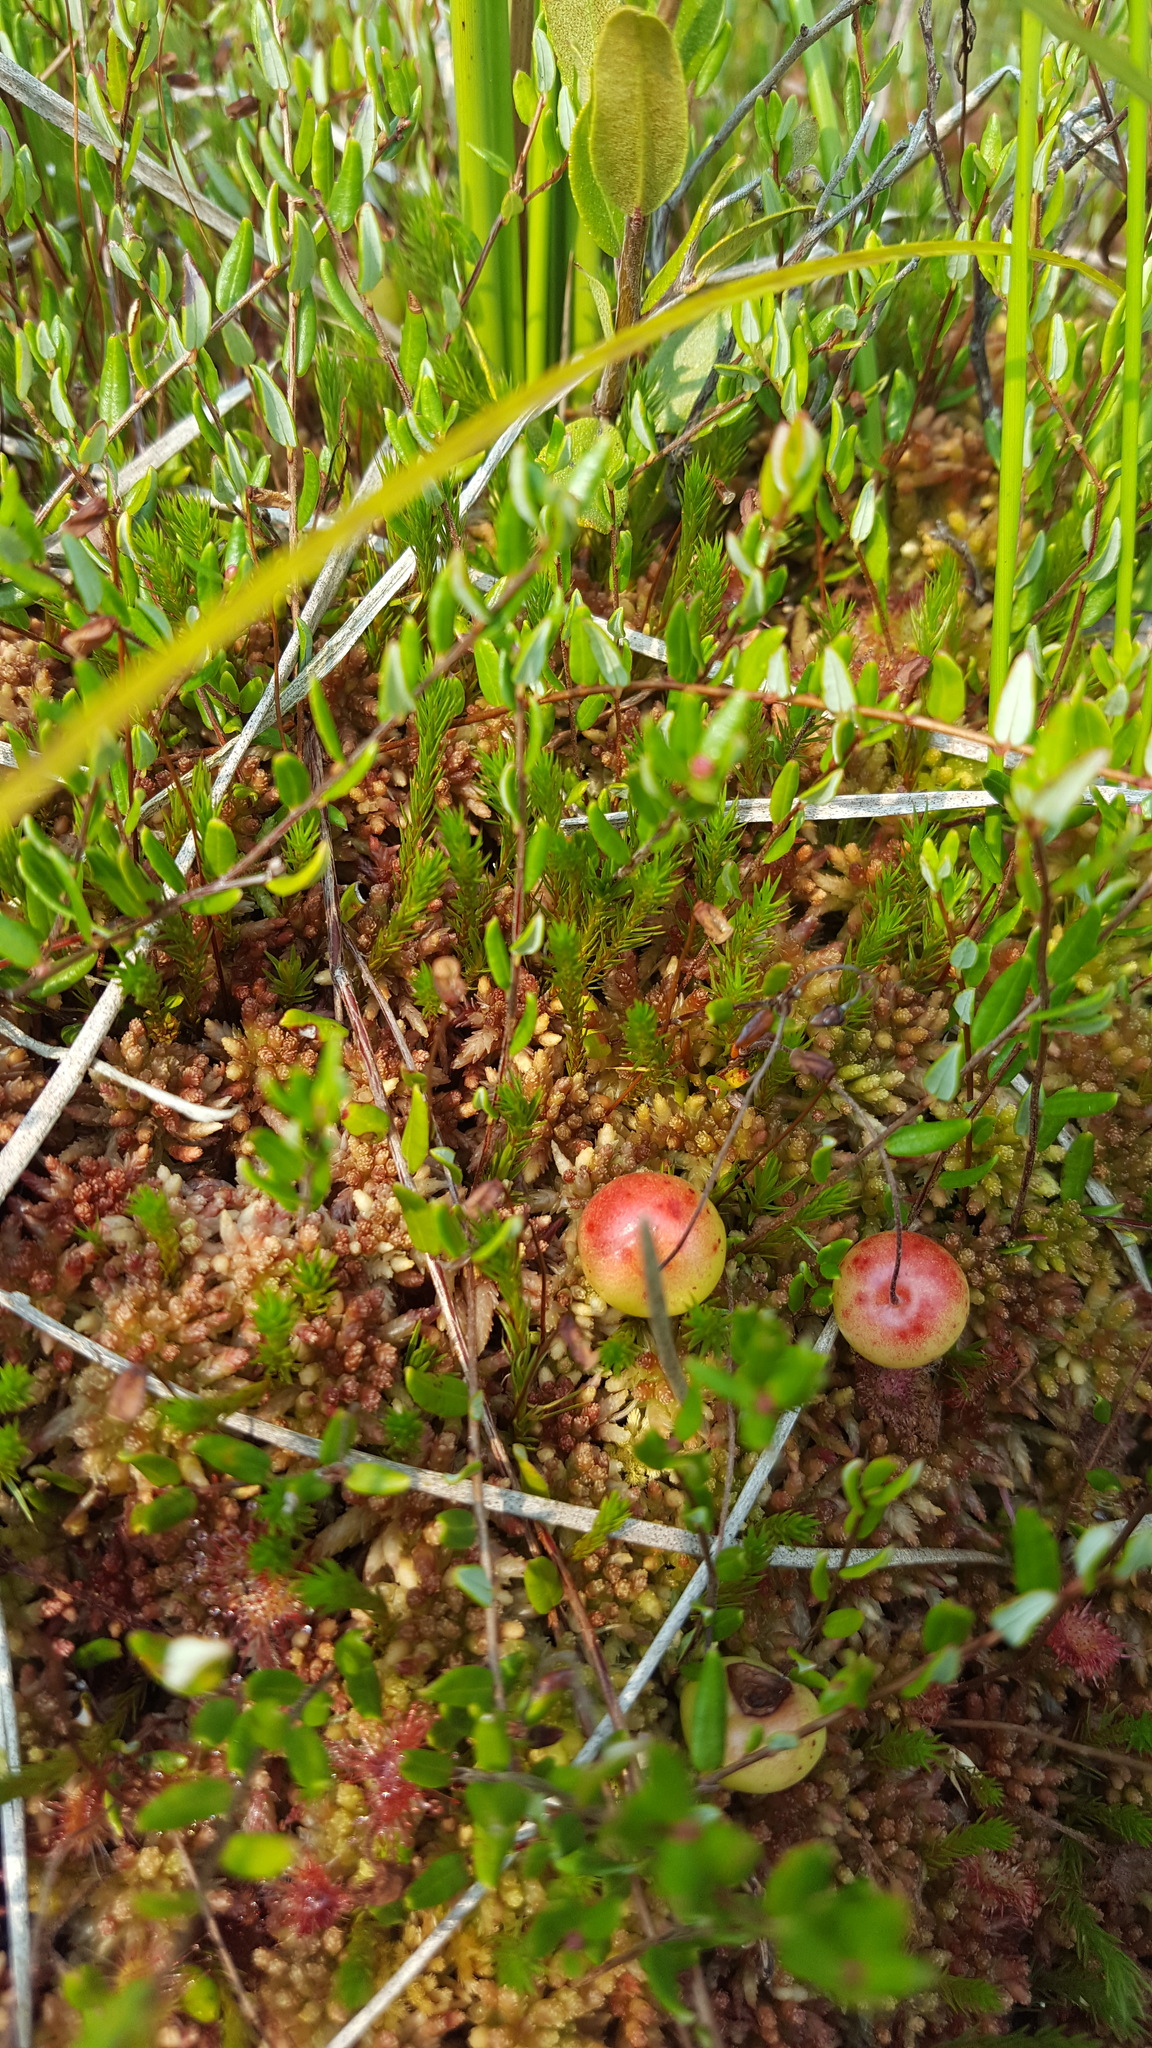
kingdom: Plantae
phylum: Tracheophyta
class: Magnoliopsida
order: Ericales
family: Ericaceae
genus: Vaccinium
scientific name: Vaccinium oxycoccos
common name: Cranberry
